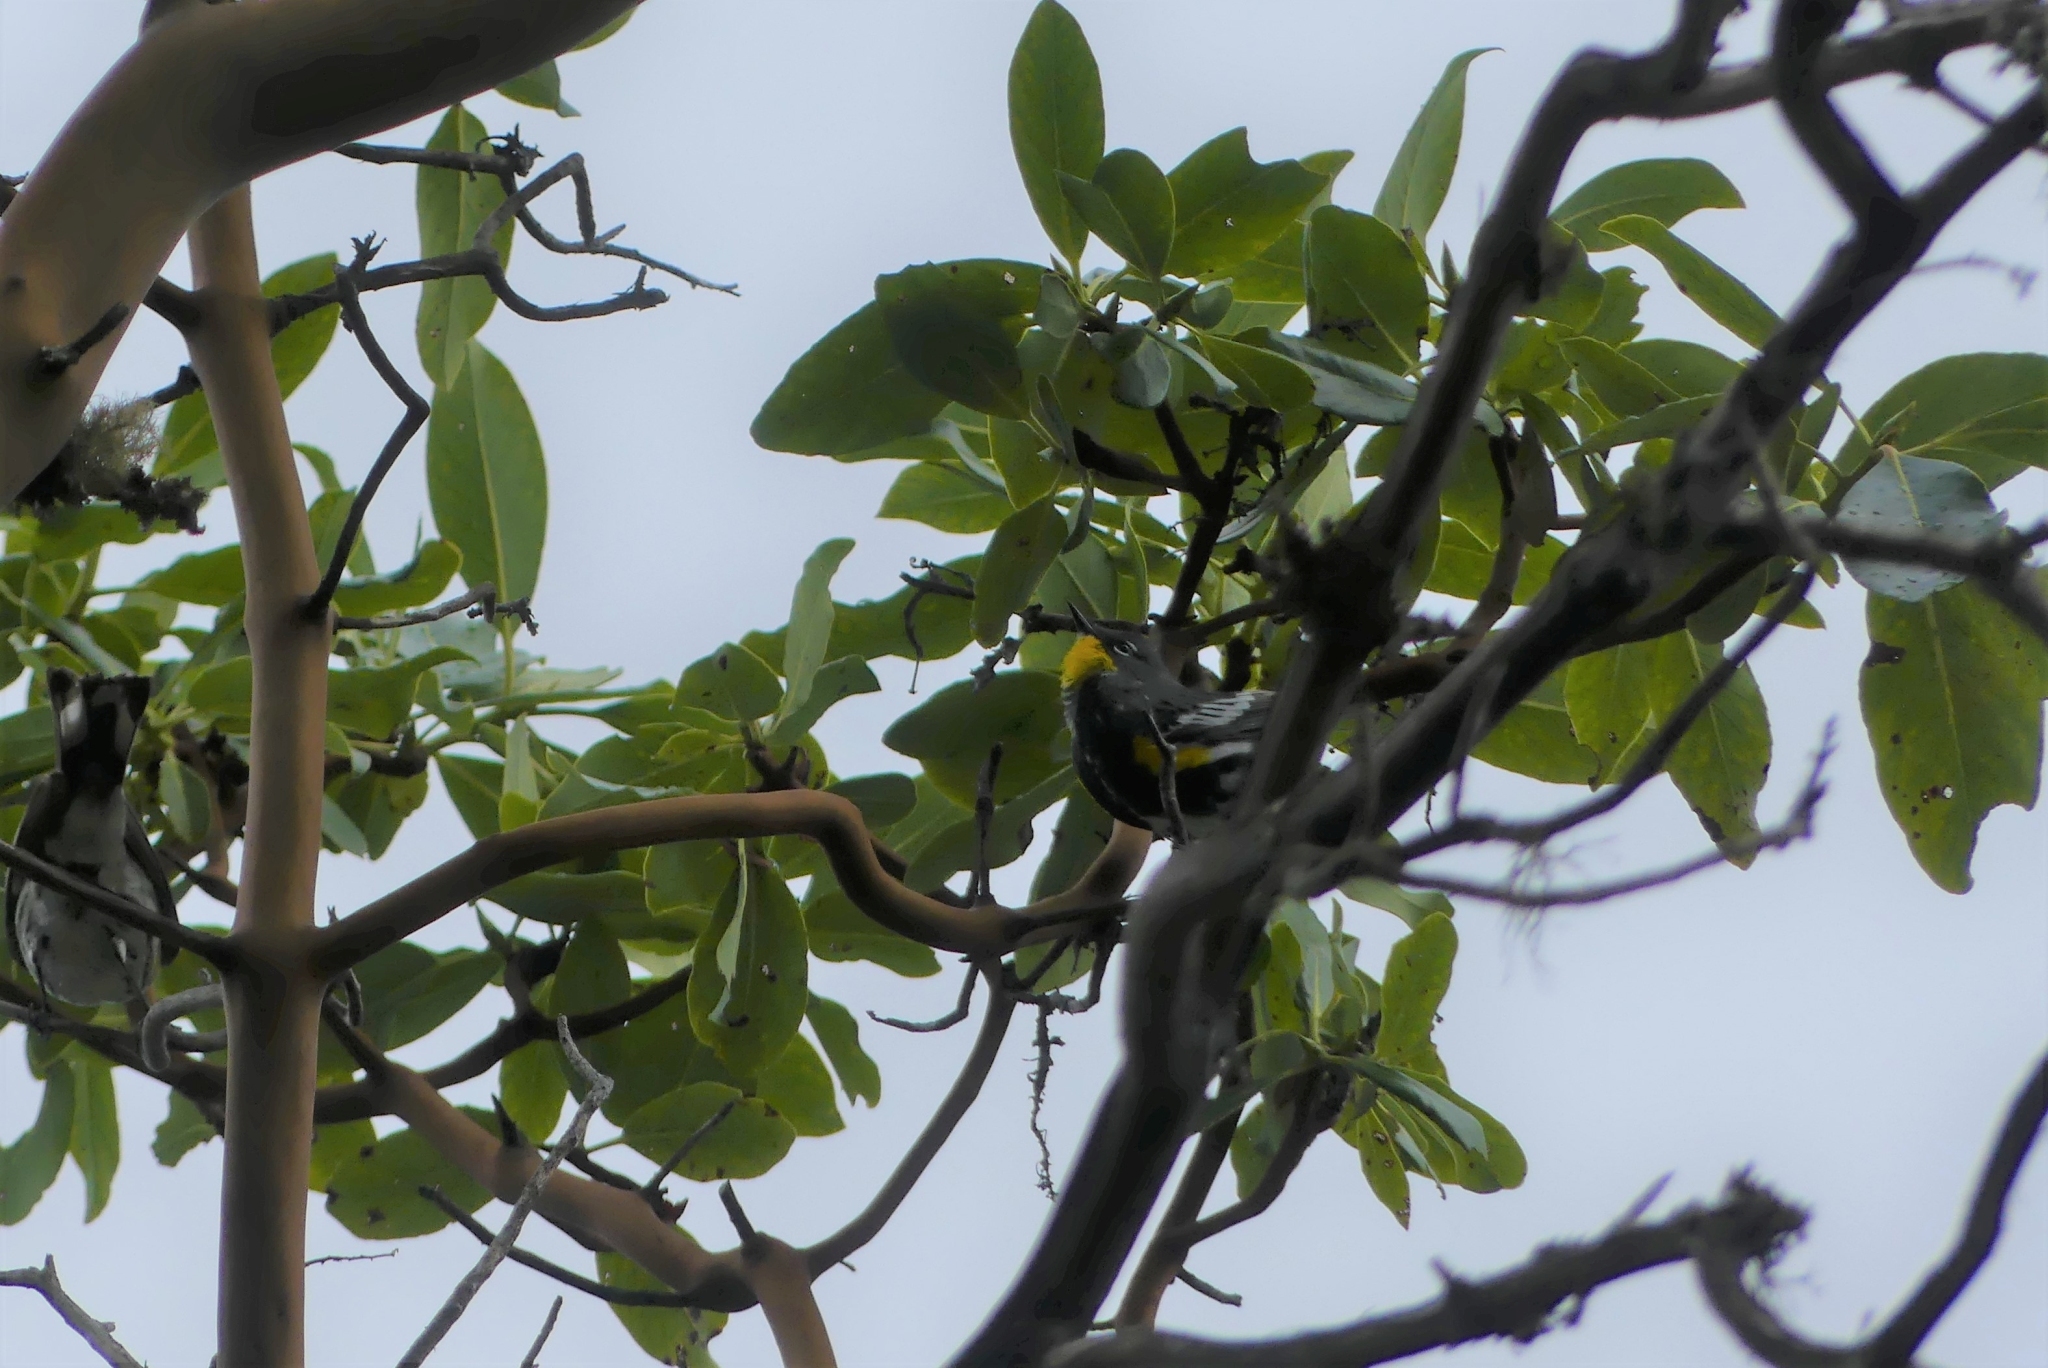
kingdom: Animalia
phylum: Chordata
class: Aves
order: Passeriformes
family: Parulidae
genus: Setophaga
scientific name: Setophaga coronata
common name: Myrtle warbler
